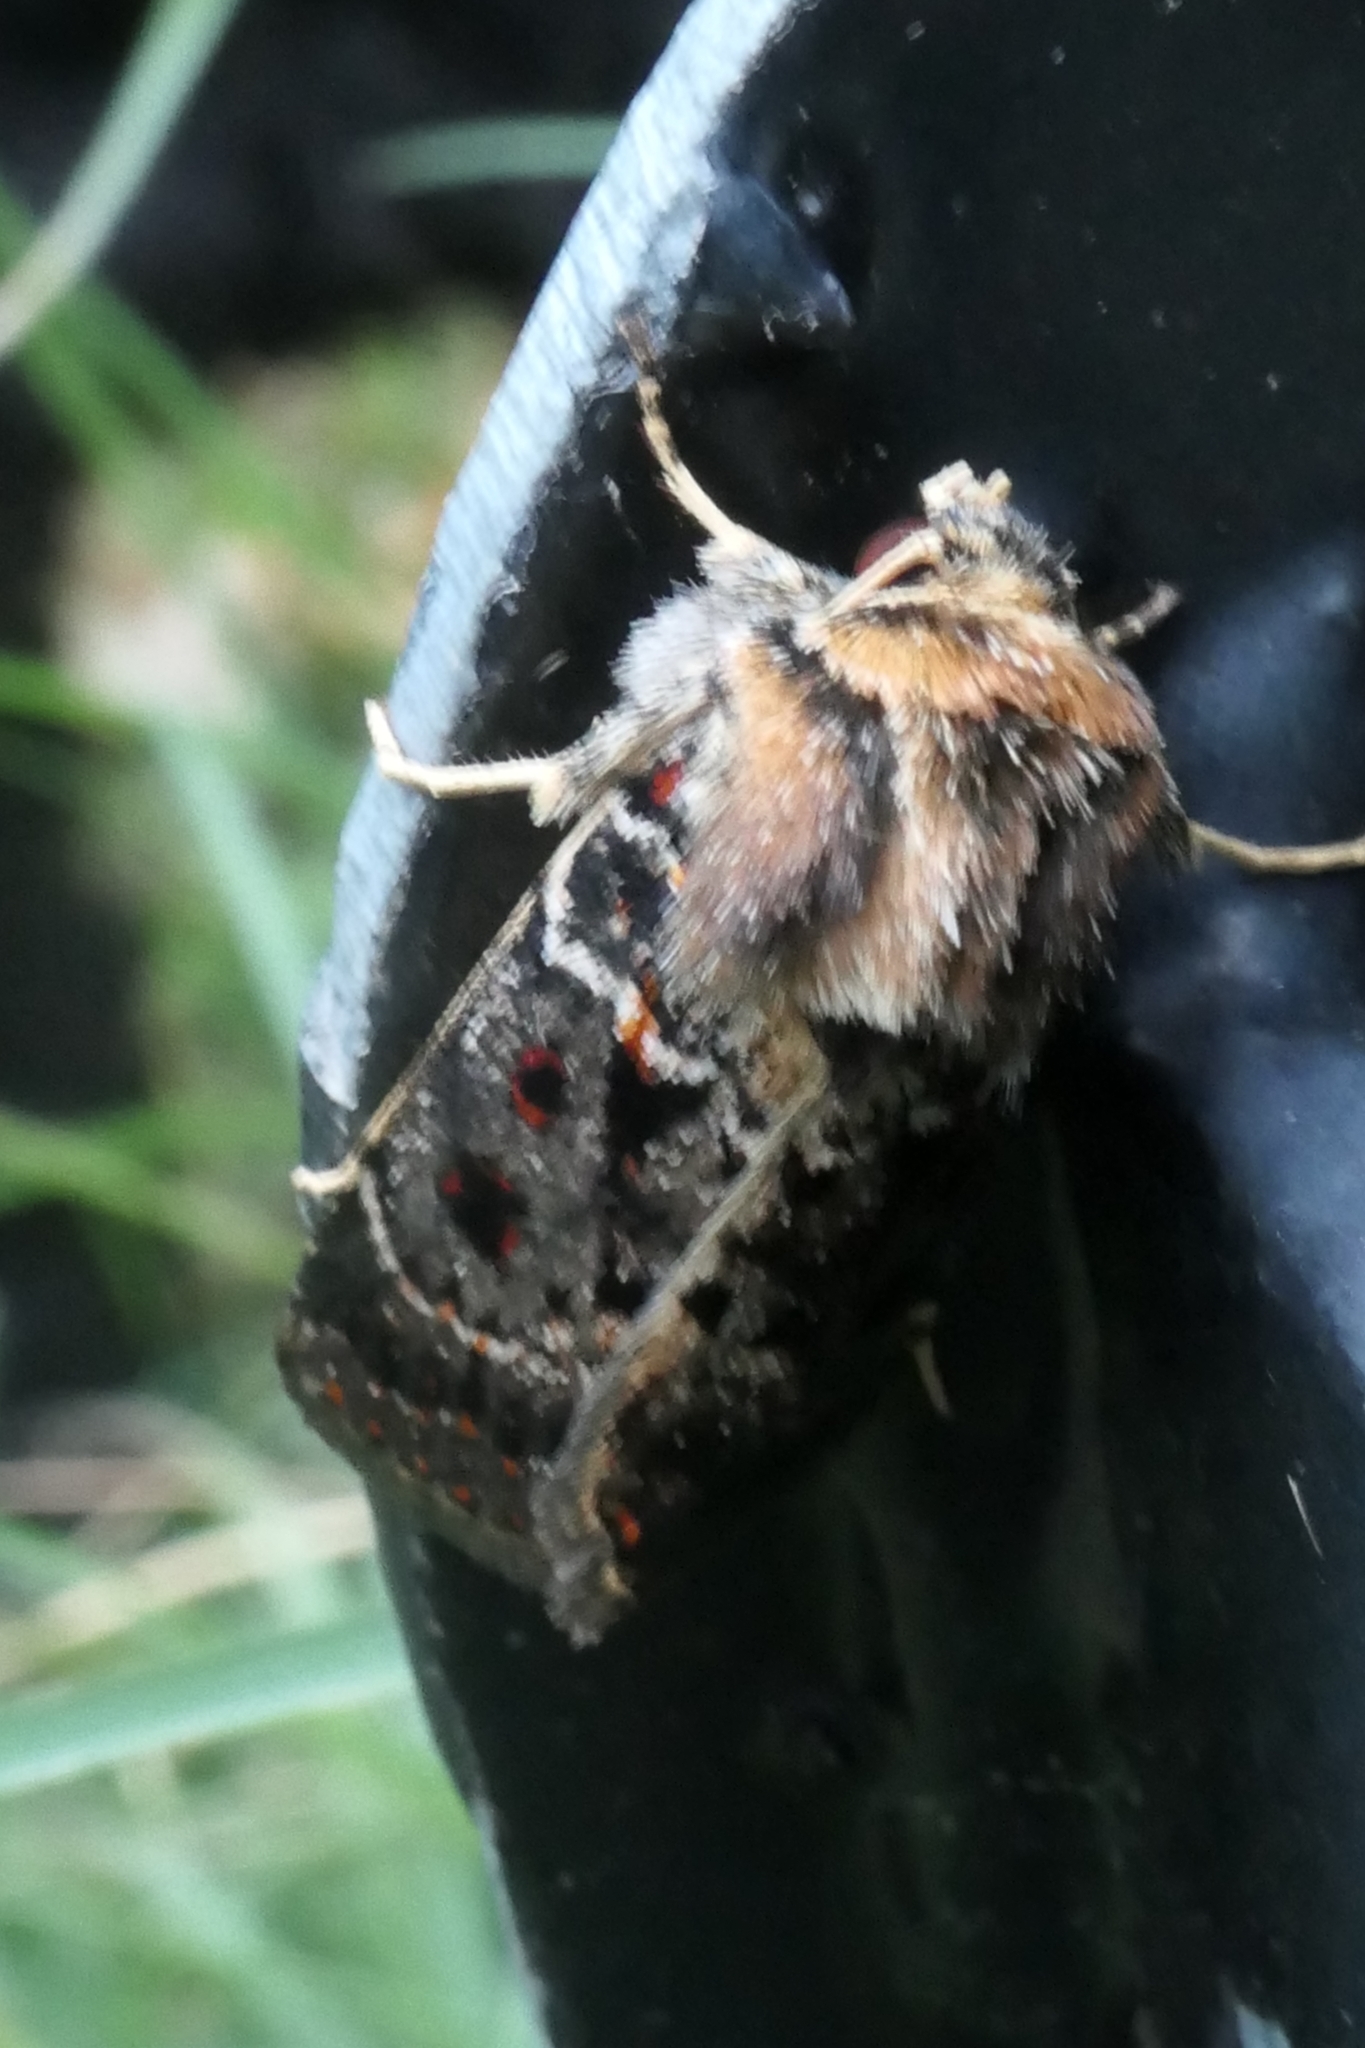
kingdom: Animalia
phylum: Arthropoda
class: Insecta
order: Lepidoptera
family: Noctuidae
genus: Proteuxoa
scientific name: Proteuxoa sanguinipuncta
